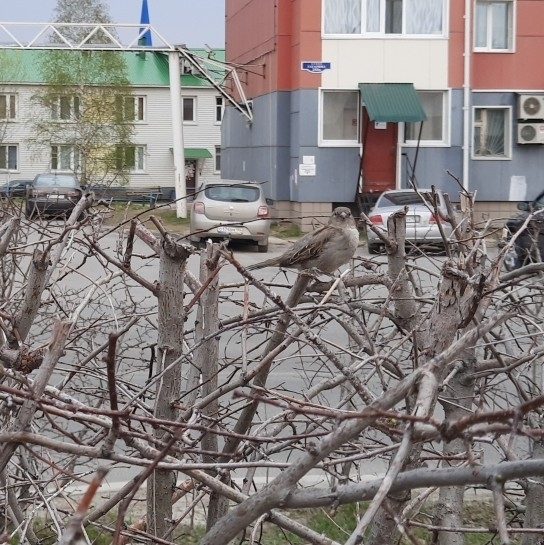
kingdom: Animalia
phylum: Chordata
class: Aves
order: Passeriformes
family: Passeridae
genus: Passer
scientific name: Passer domesticus
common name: House sparrow
